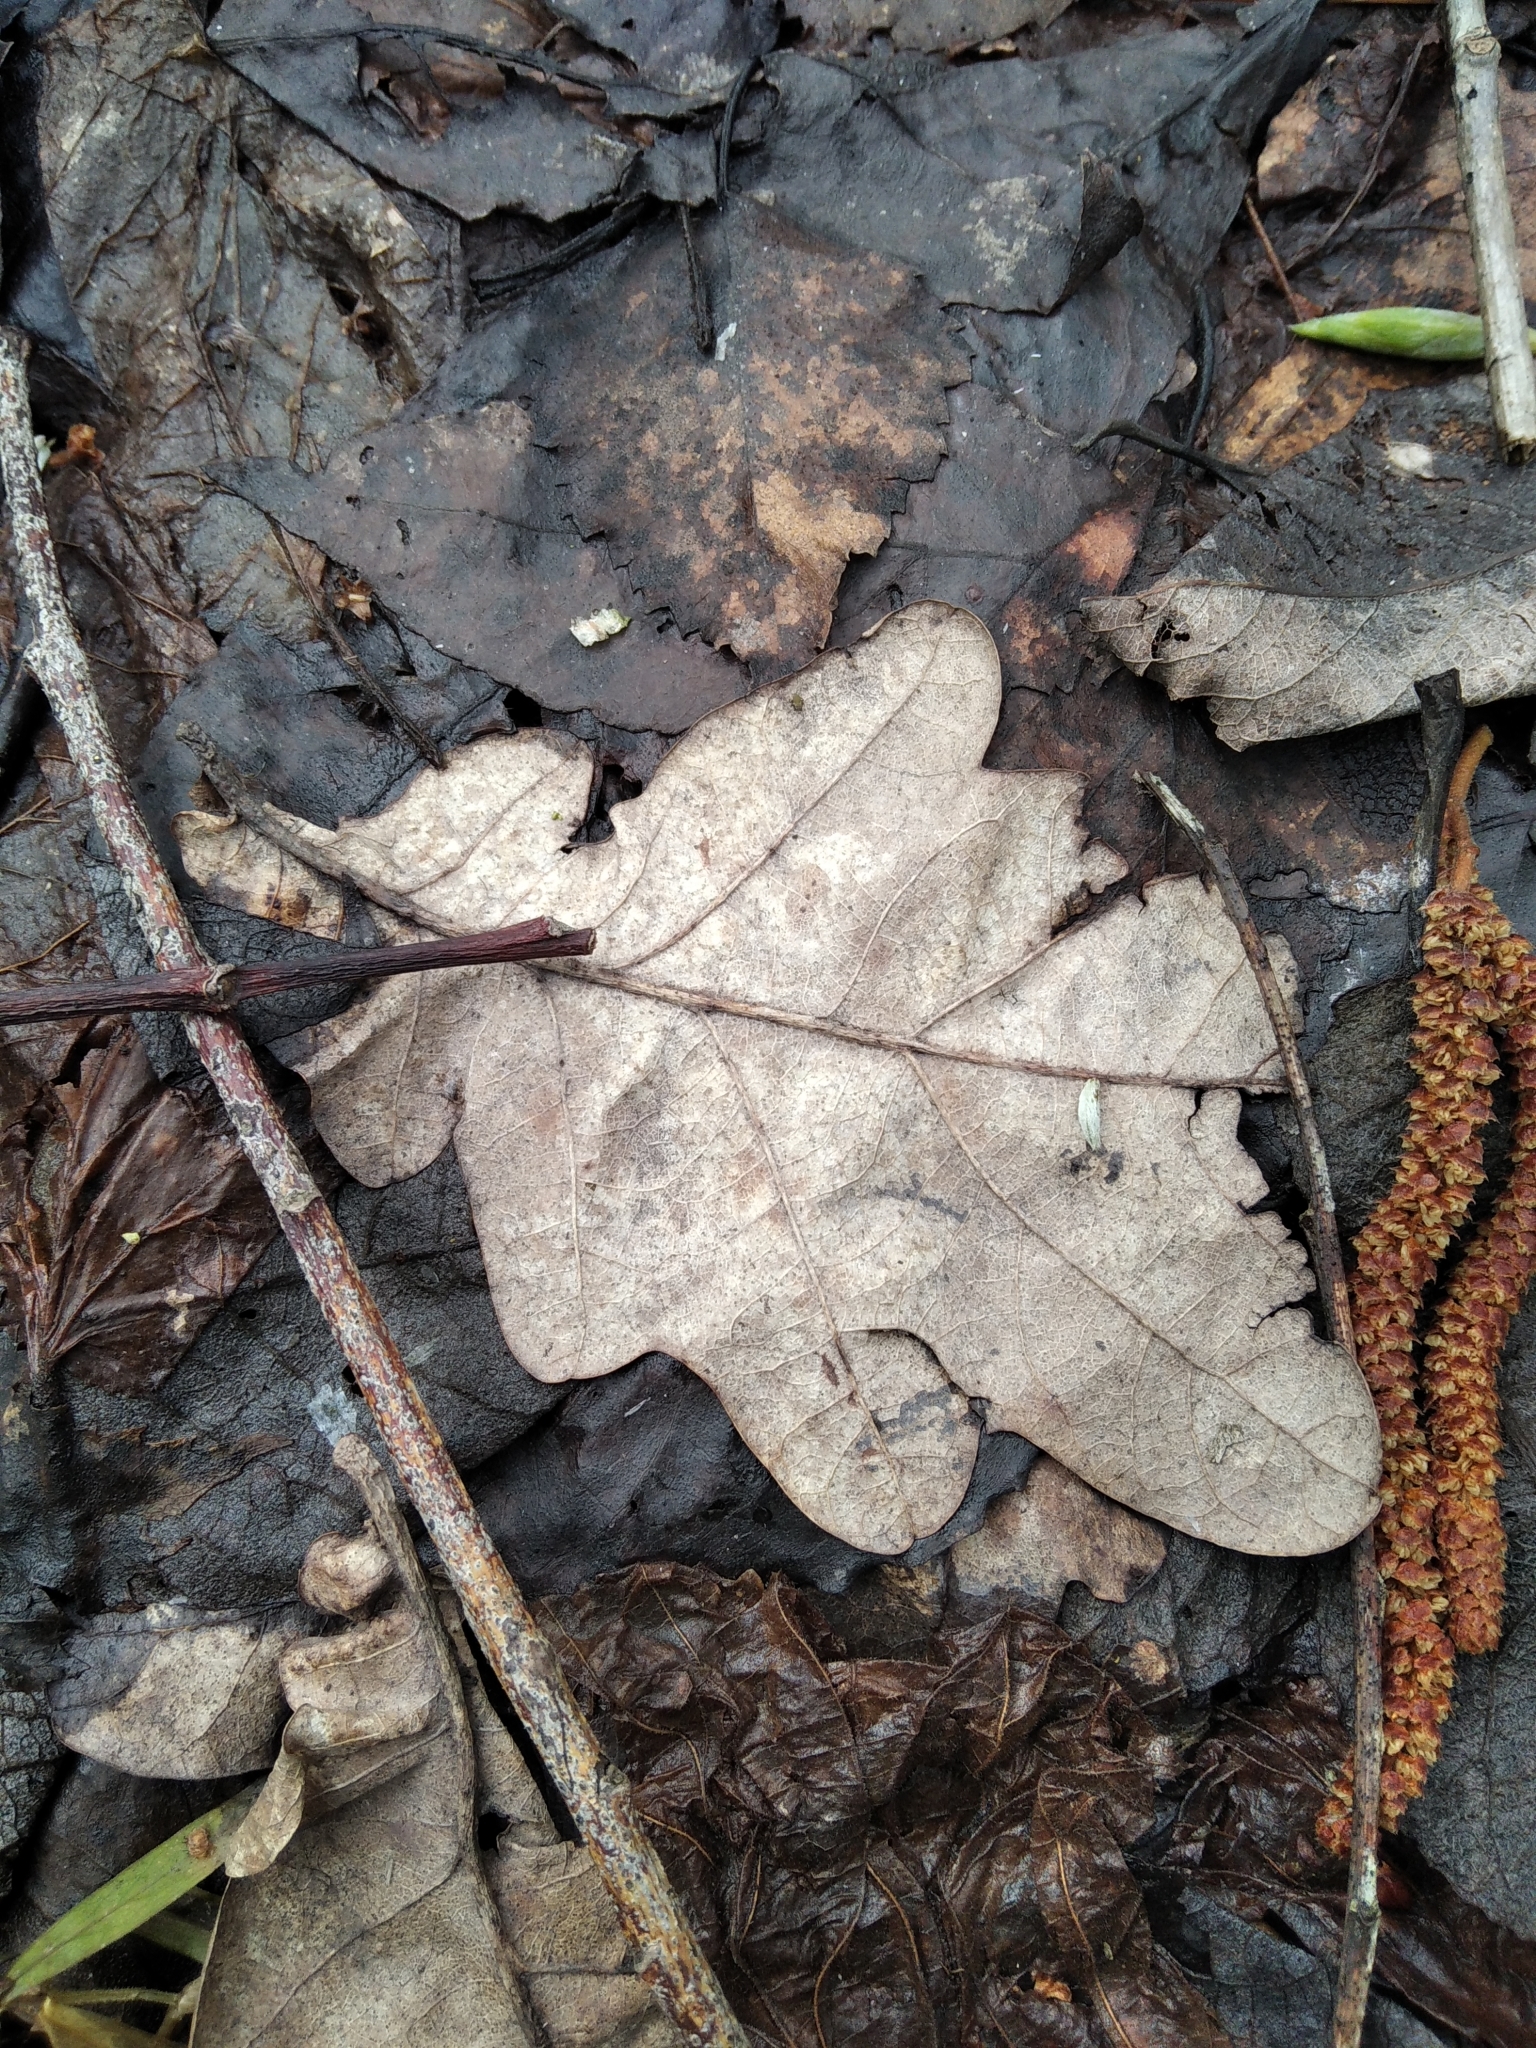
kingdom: Plantae
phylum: Tracheophyta
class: Magnoliopsida
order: Fagales
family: Fagaceae
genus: Quercus
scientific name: Quercus robur
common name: Pedunculate oak
